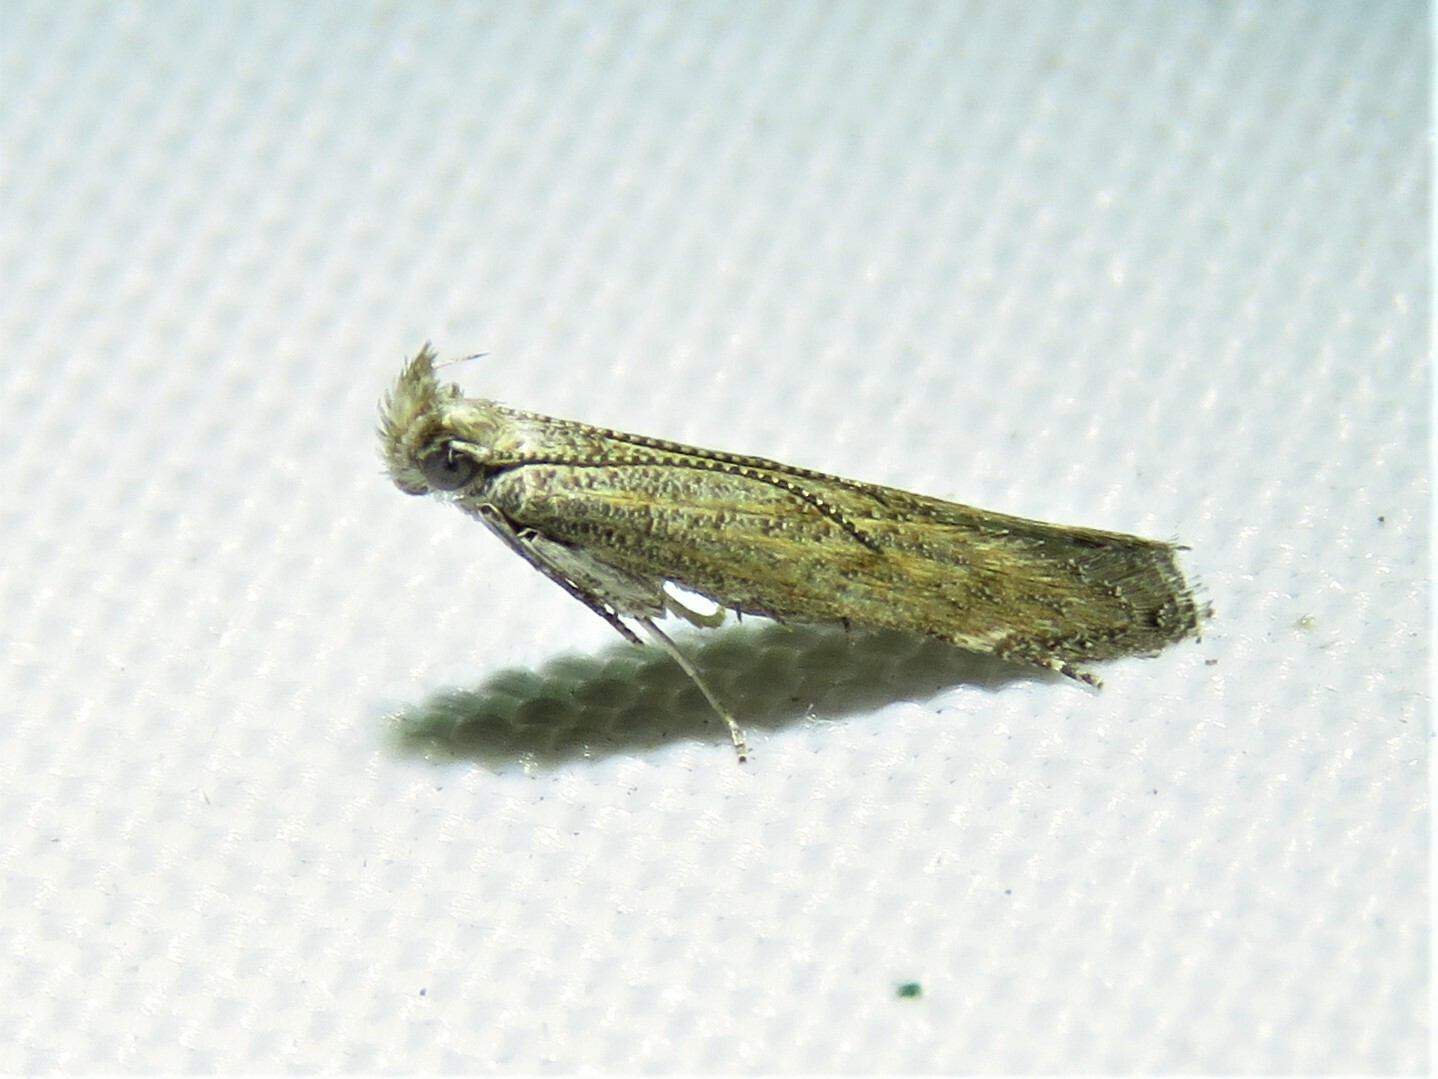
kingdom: Animalia
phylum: Arthropoda
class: Insecta
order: Lepidoptera
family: Gelechiidae
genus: Isophrictis
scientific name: Isophrictis similiella
